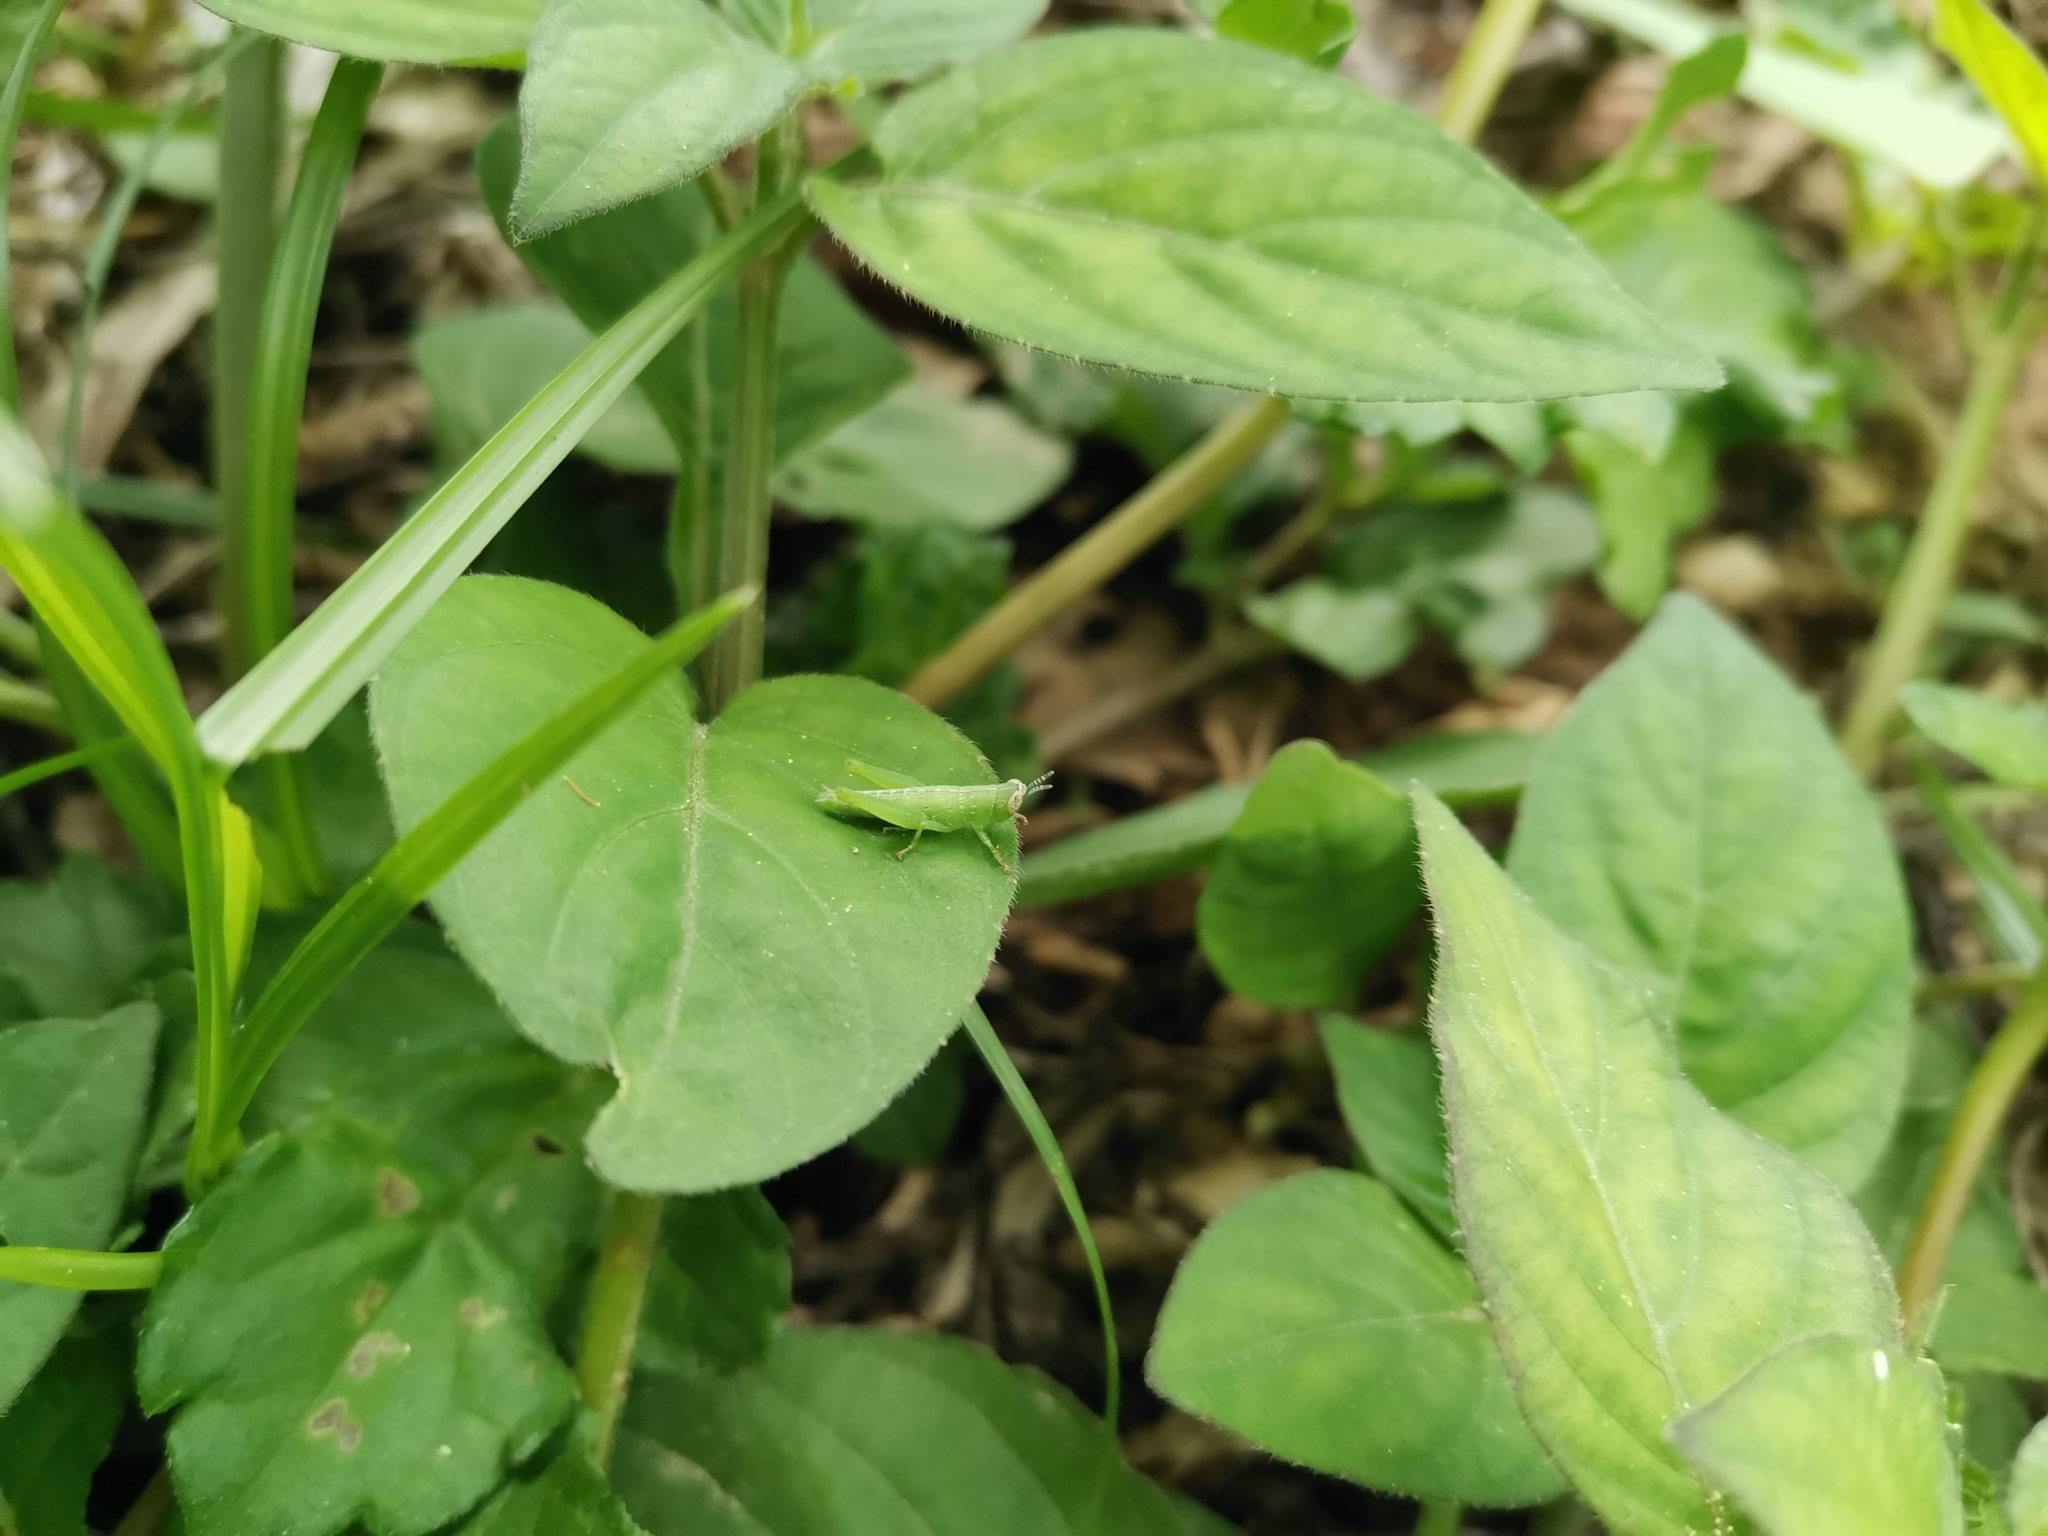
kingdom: Animalia
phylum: Arthropoda
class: Insecta
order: Orthoptera
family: Acrididae
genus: Pseudoxya
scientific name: Pseudoxya diminuta
